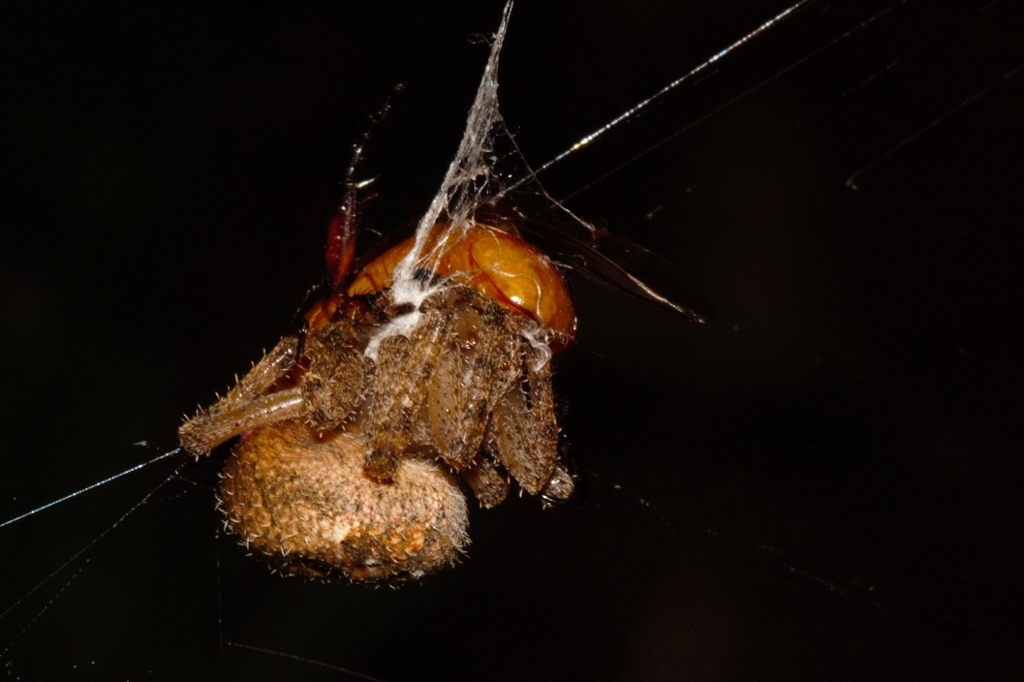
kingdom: Animalia
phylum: Arthropoda
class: Arachnida
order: Araneae
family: Araneidae
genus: Pararaneus
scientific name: Pararaneus cyrtoscapus
